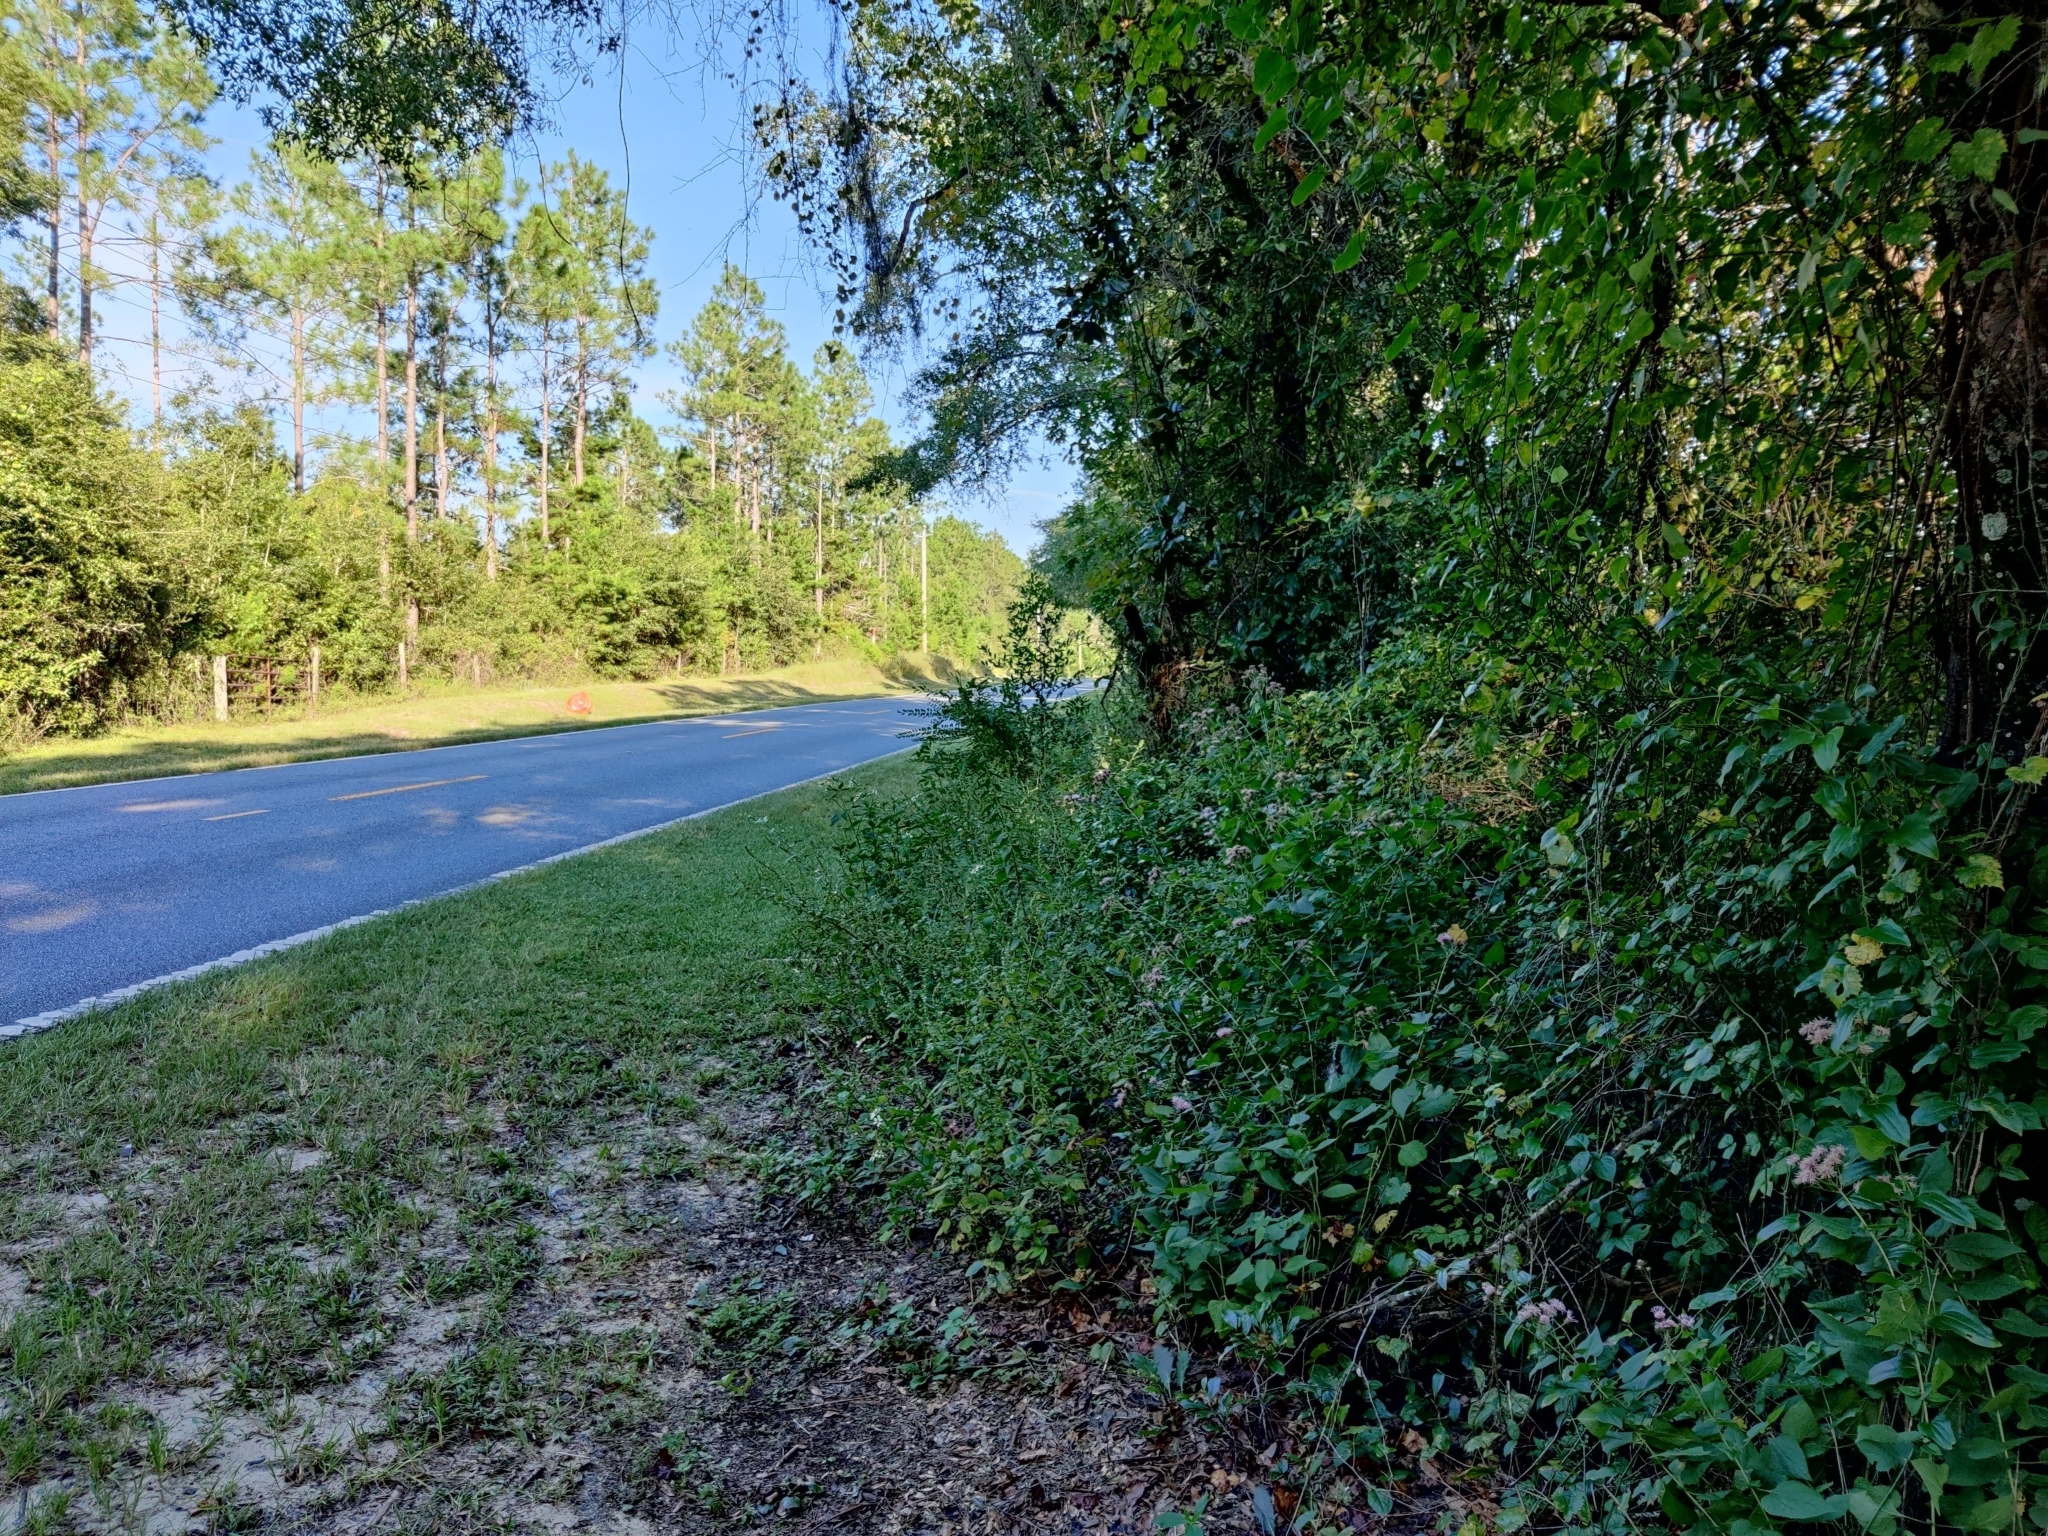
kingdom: Plantae
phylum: Tracheophyta
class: Magnoliopsida
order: Asterales
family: Asteraceae
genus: Brickellia
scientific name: Brickellia cordifolia
